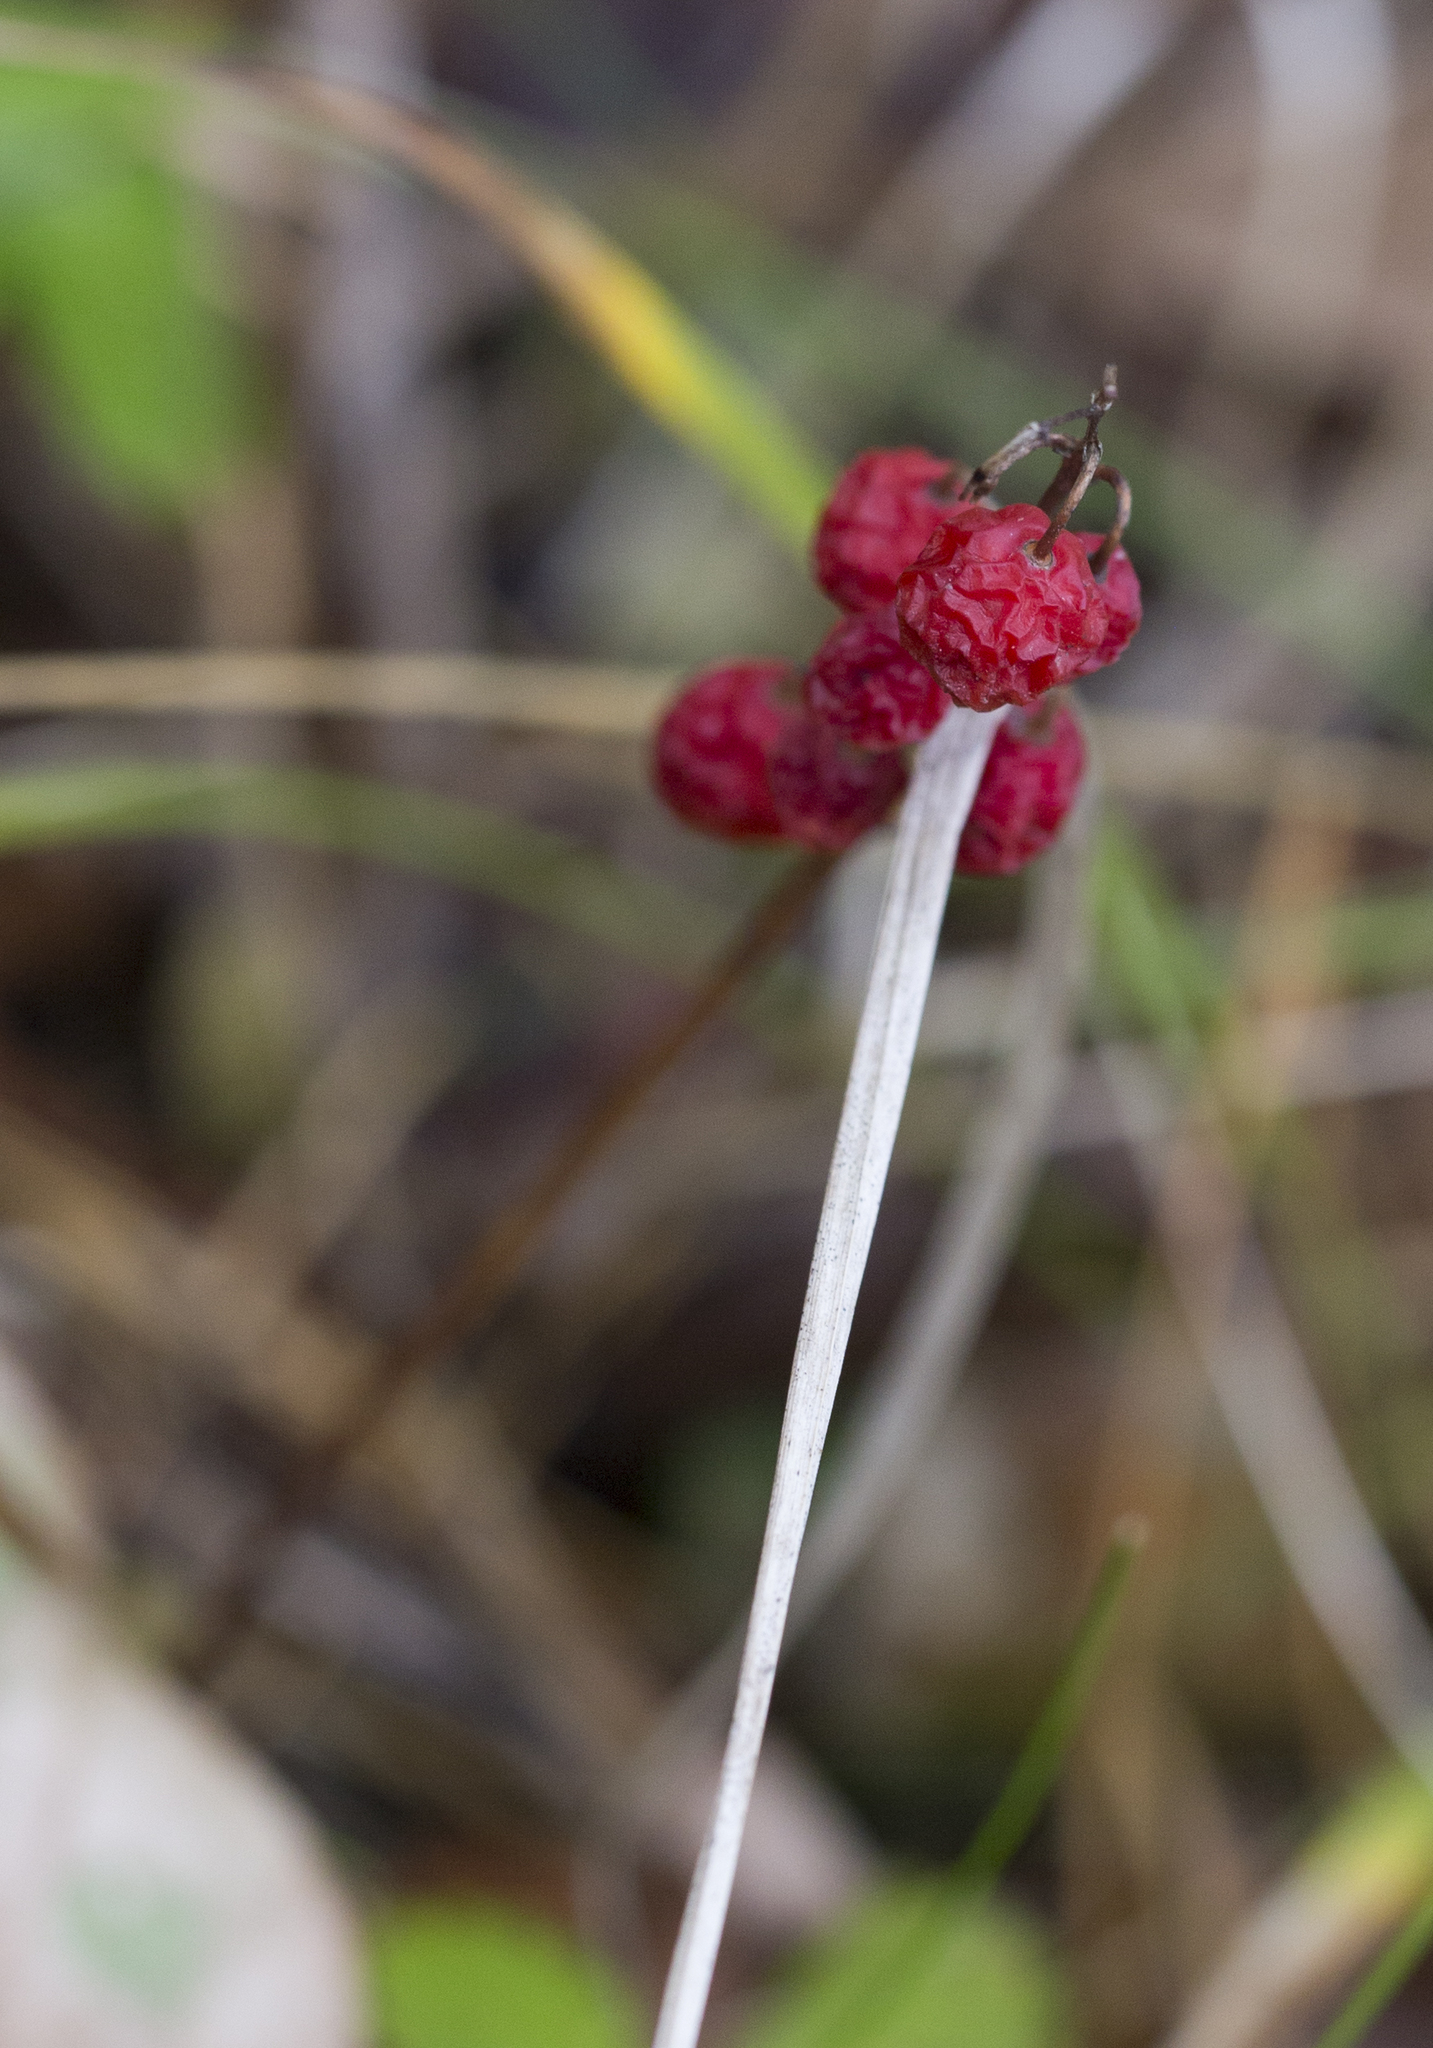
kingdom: Plantae
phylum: Tracheophyta
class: Liliopsida
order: Asparagales
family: Asparagaceae
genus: Convallaria
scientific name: Convallaria majalis
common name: Lily-of-the-valley
